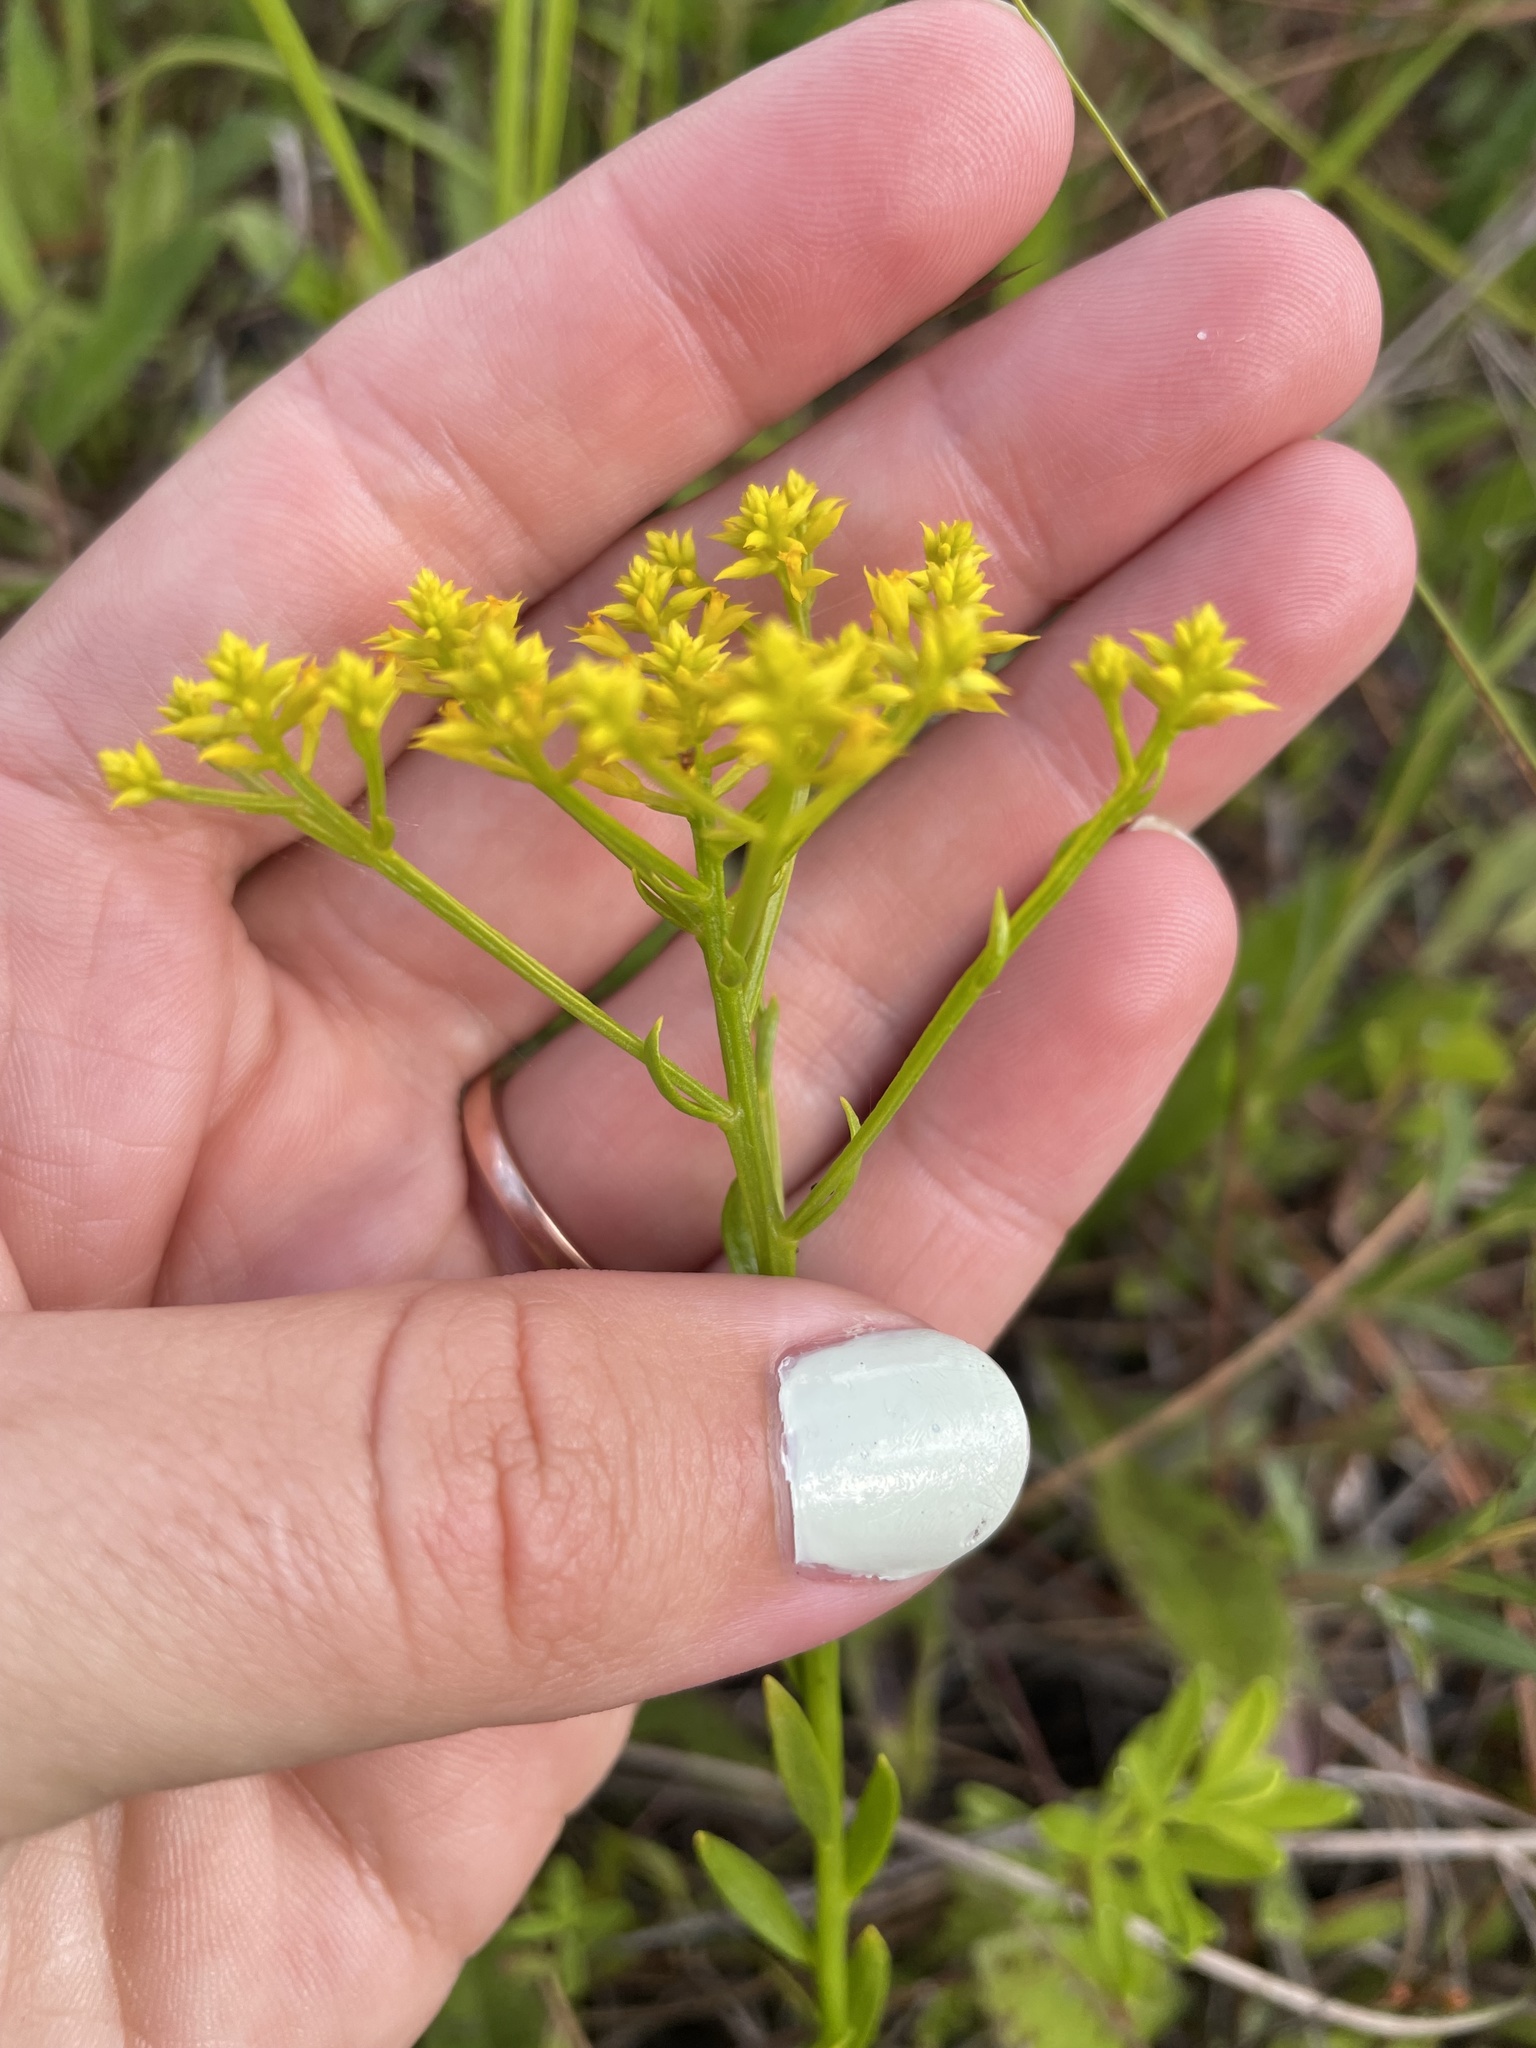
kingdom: Plantae
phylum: Tracheophyta
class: Magnoliopsida
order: Fabales
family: Polygalaceae
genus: Polygala
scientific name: Polygala ramosa
